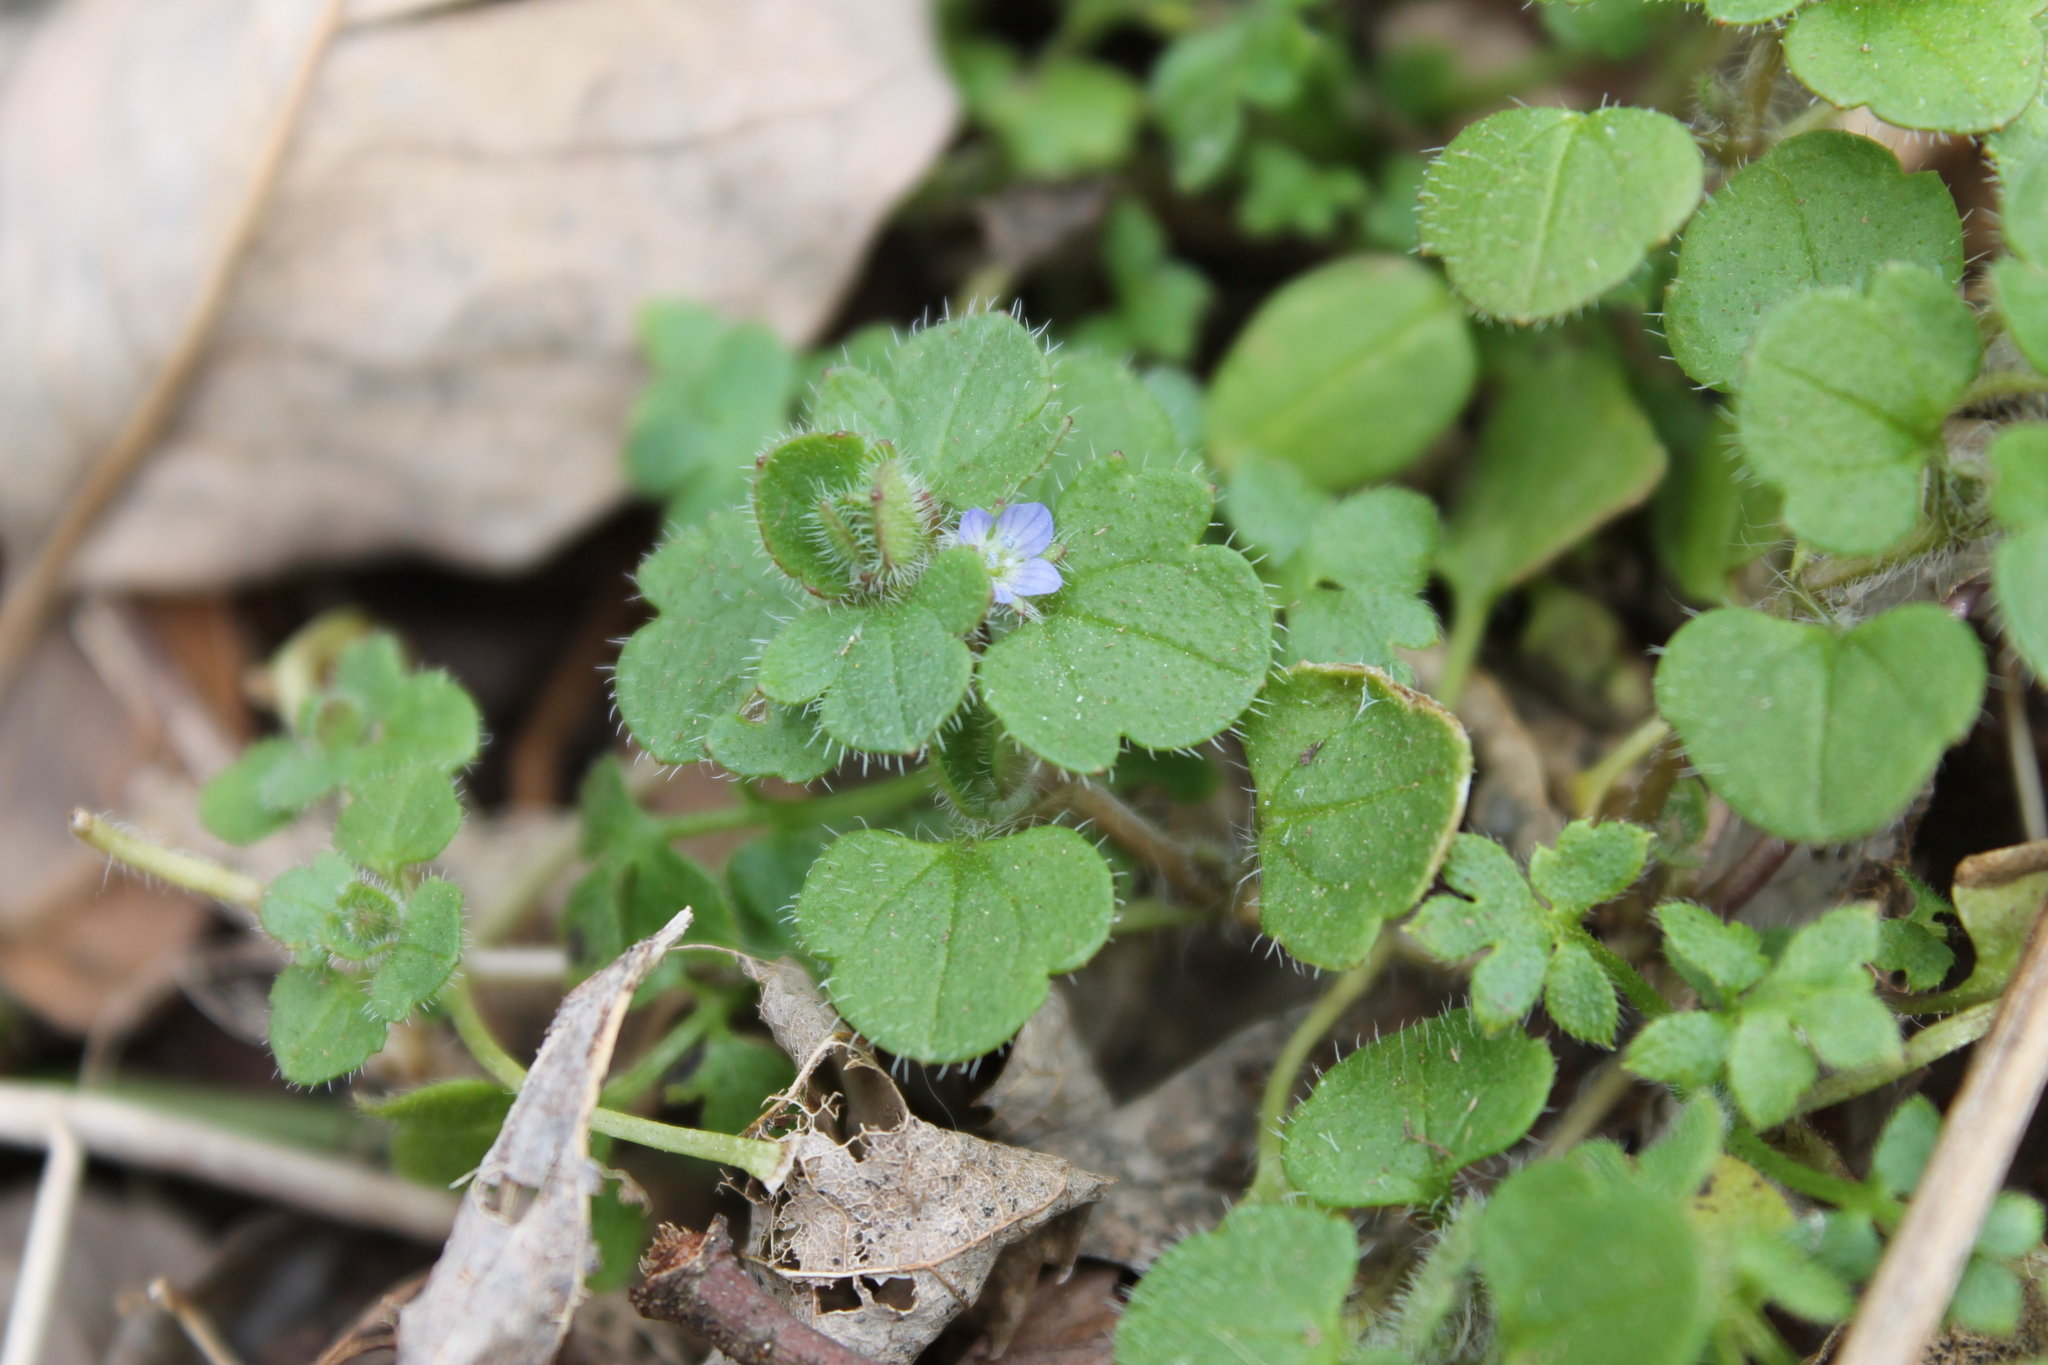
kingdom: Plantae
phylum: Tracheophyta
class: Magnoliopsida
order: Lamiales
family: Plantaginaceae
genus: Veronica
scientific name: Veronica hederifolia
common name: Ivy-leaved speedwell
